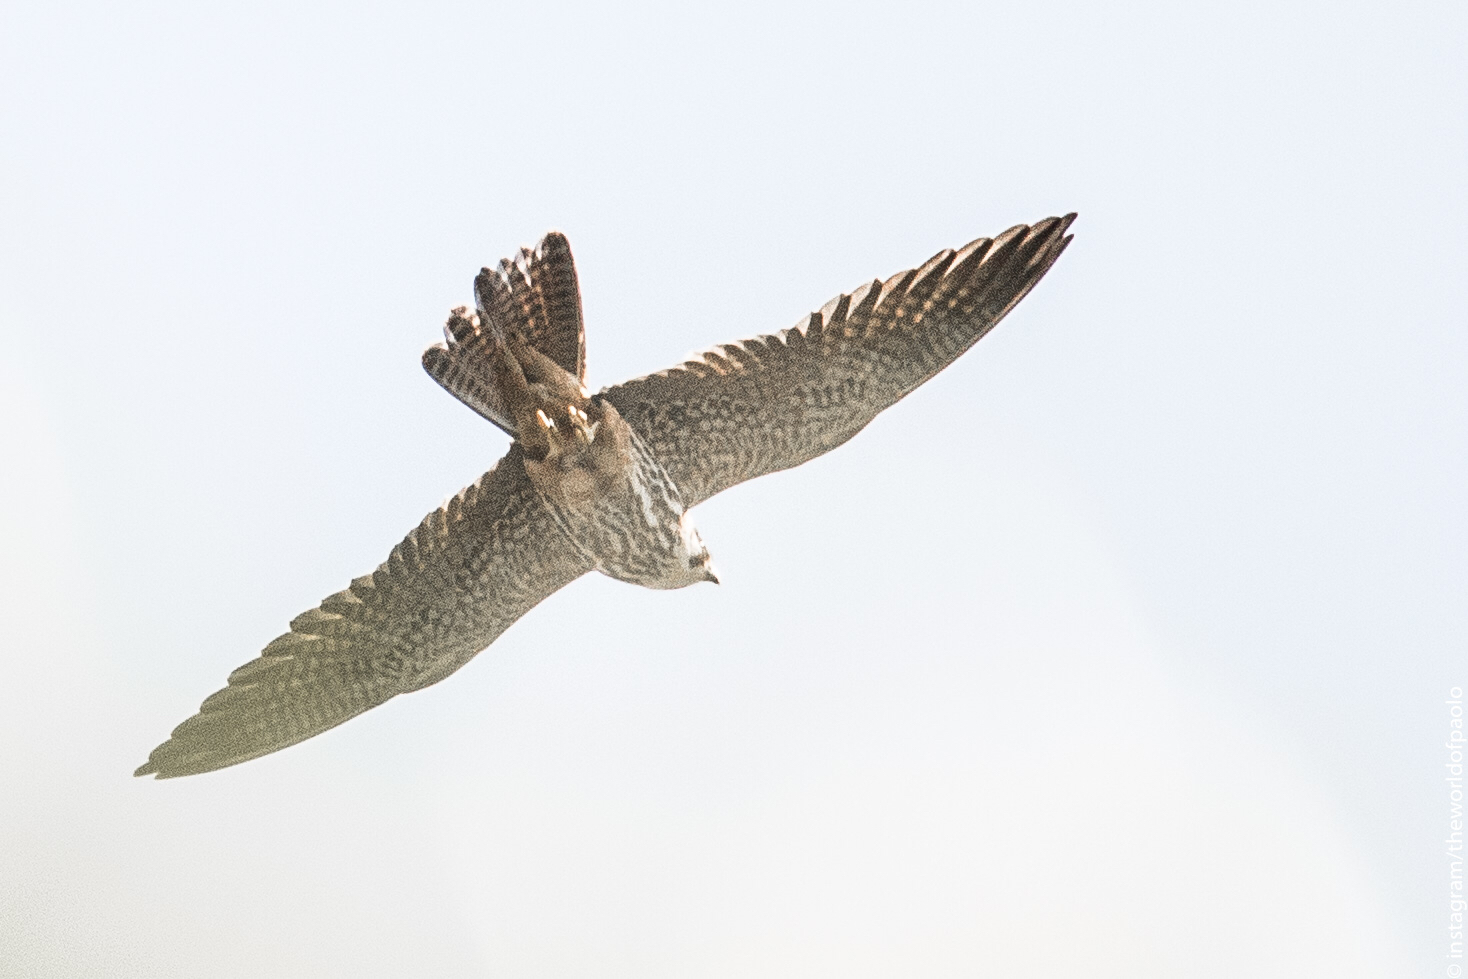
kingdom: Animalia
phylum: Chordata
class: Aves
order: Falconiformes
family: Falconidae
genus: Falco
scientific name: Falco subbuteo
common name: Eurasian hobby
